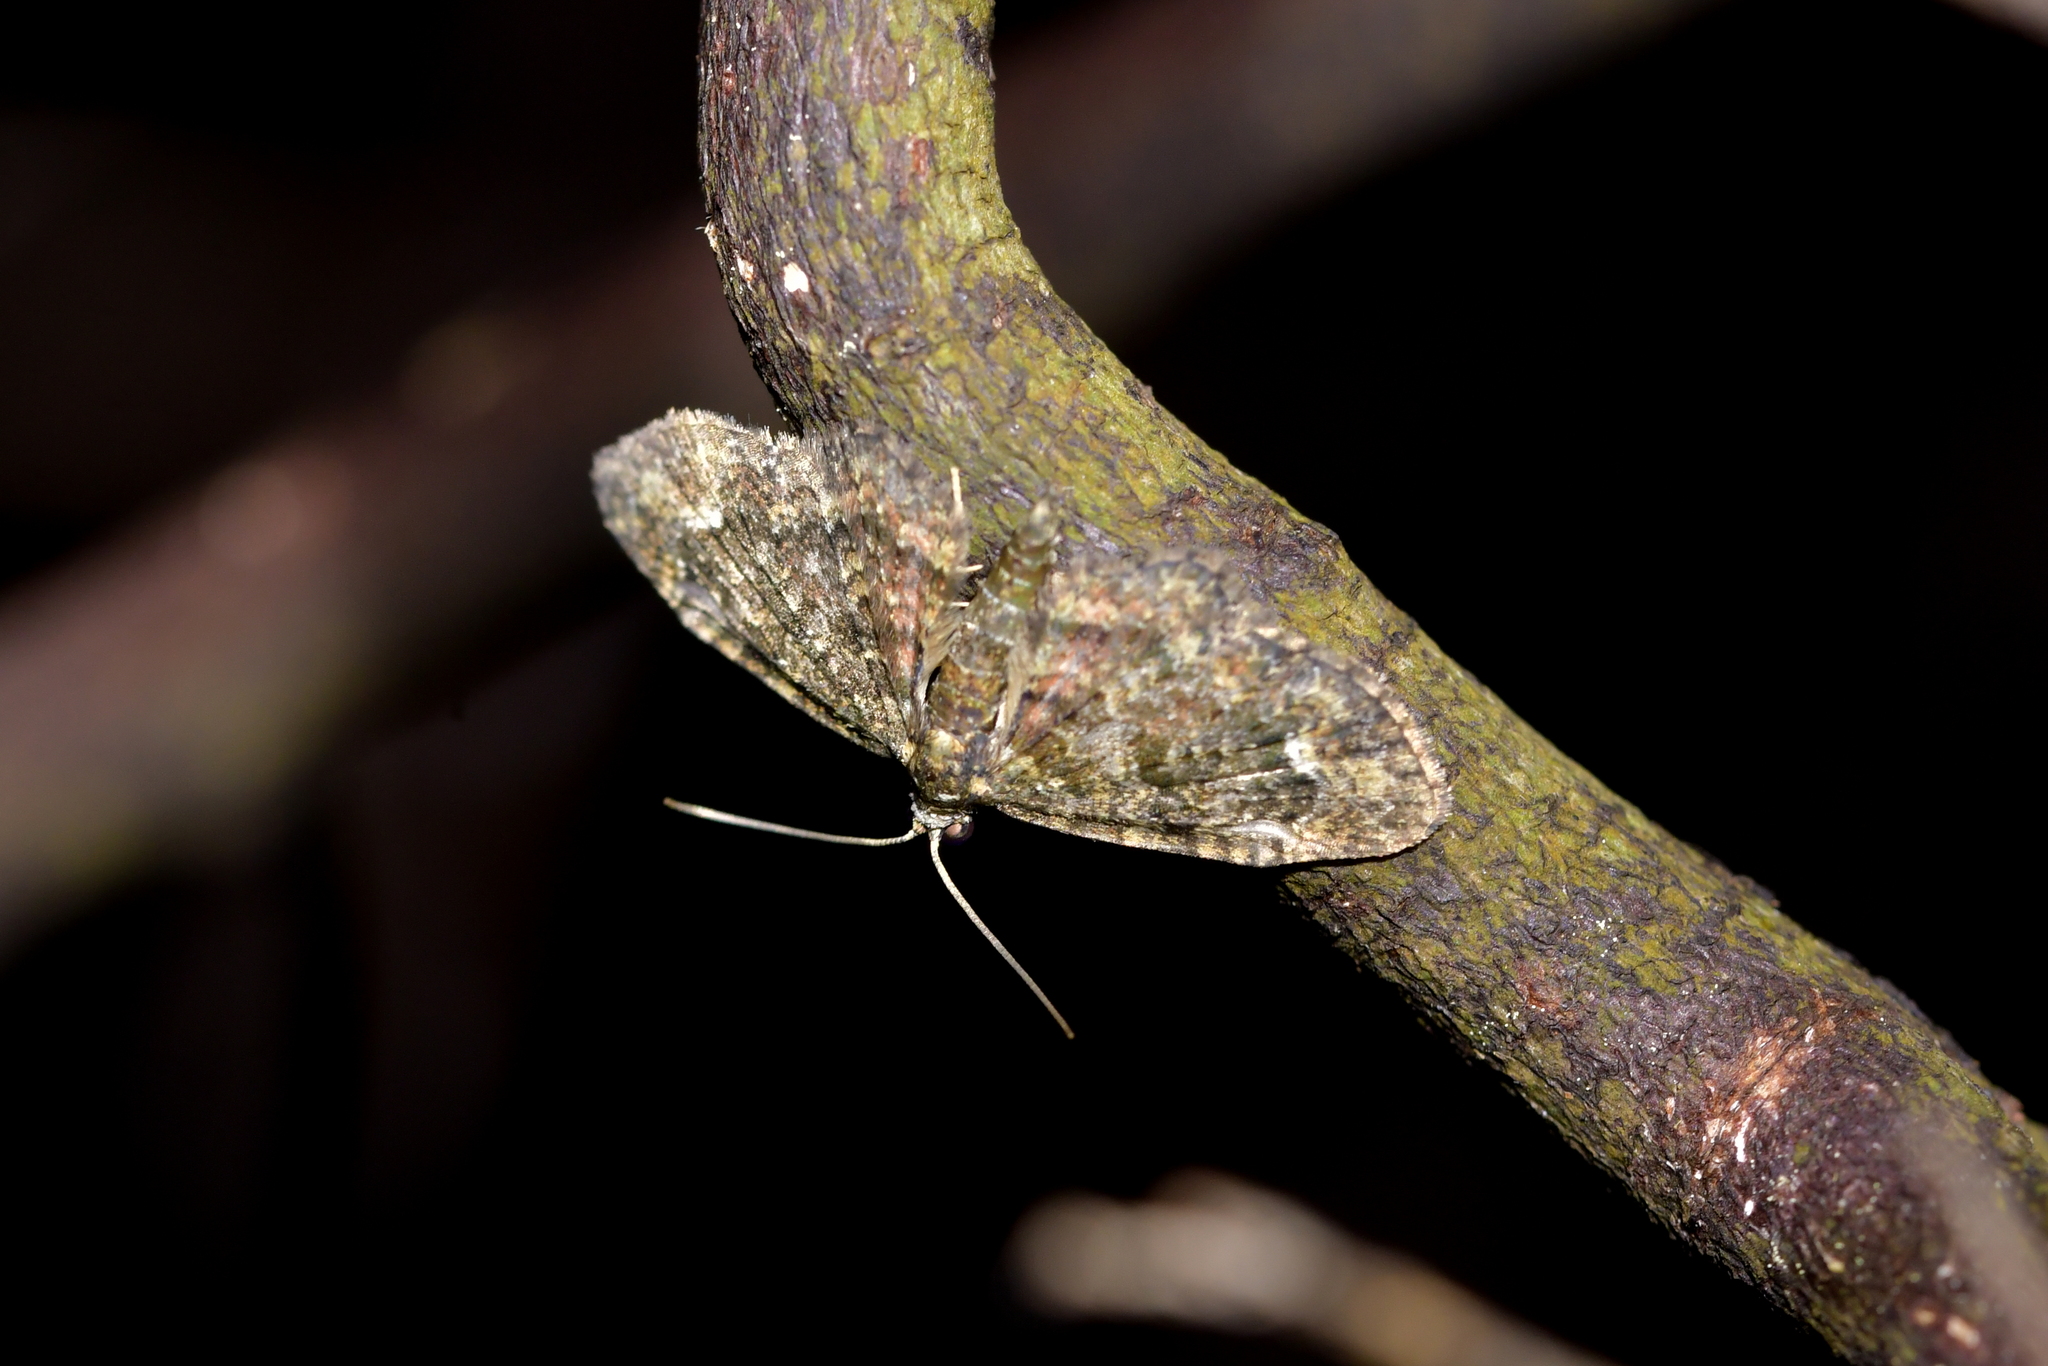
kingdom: Animalia
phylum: Arthropoda
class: Insecta
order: Lepidoptera
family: Geometridae
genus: Pasiphilodes
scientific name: Pasiphilodes testulata
